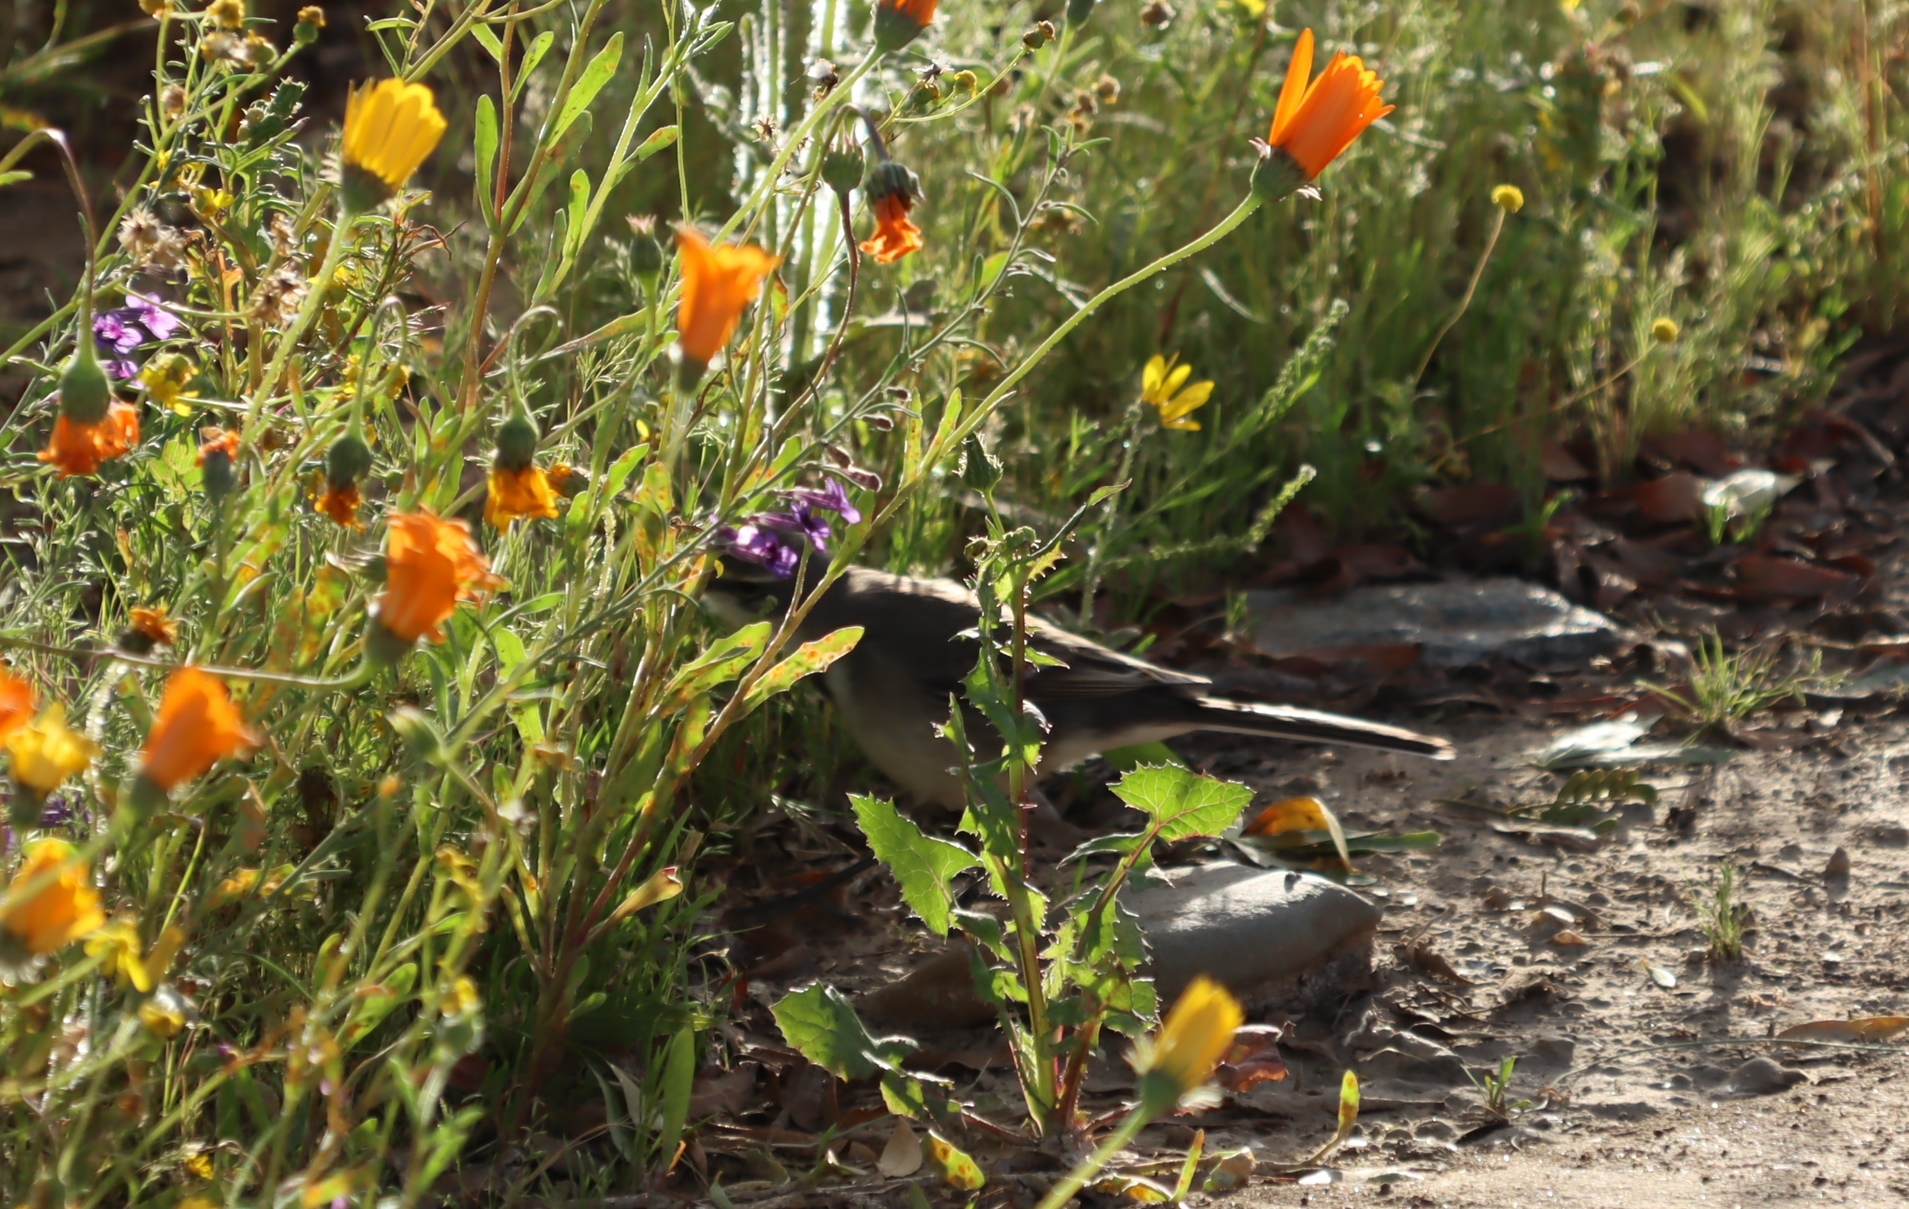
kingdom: Animalia
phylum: Chordata
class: Aves
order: Passeriformes
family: Motacillidae
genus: Motacilla
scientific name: Motacilla capensis
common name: Cape wagtail
